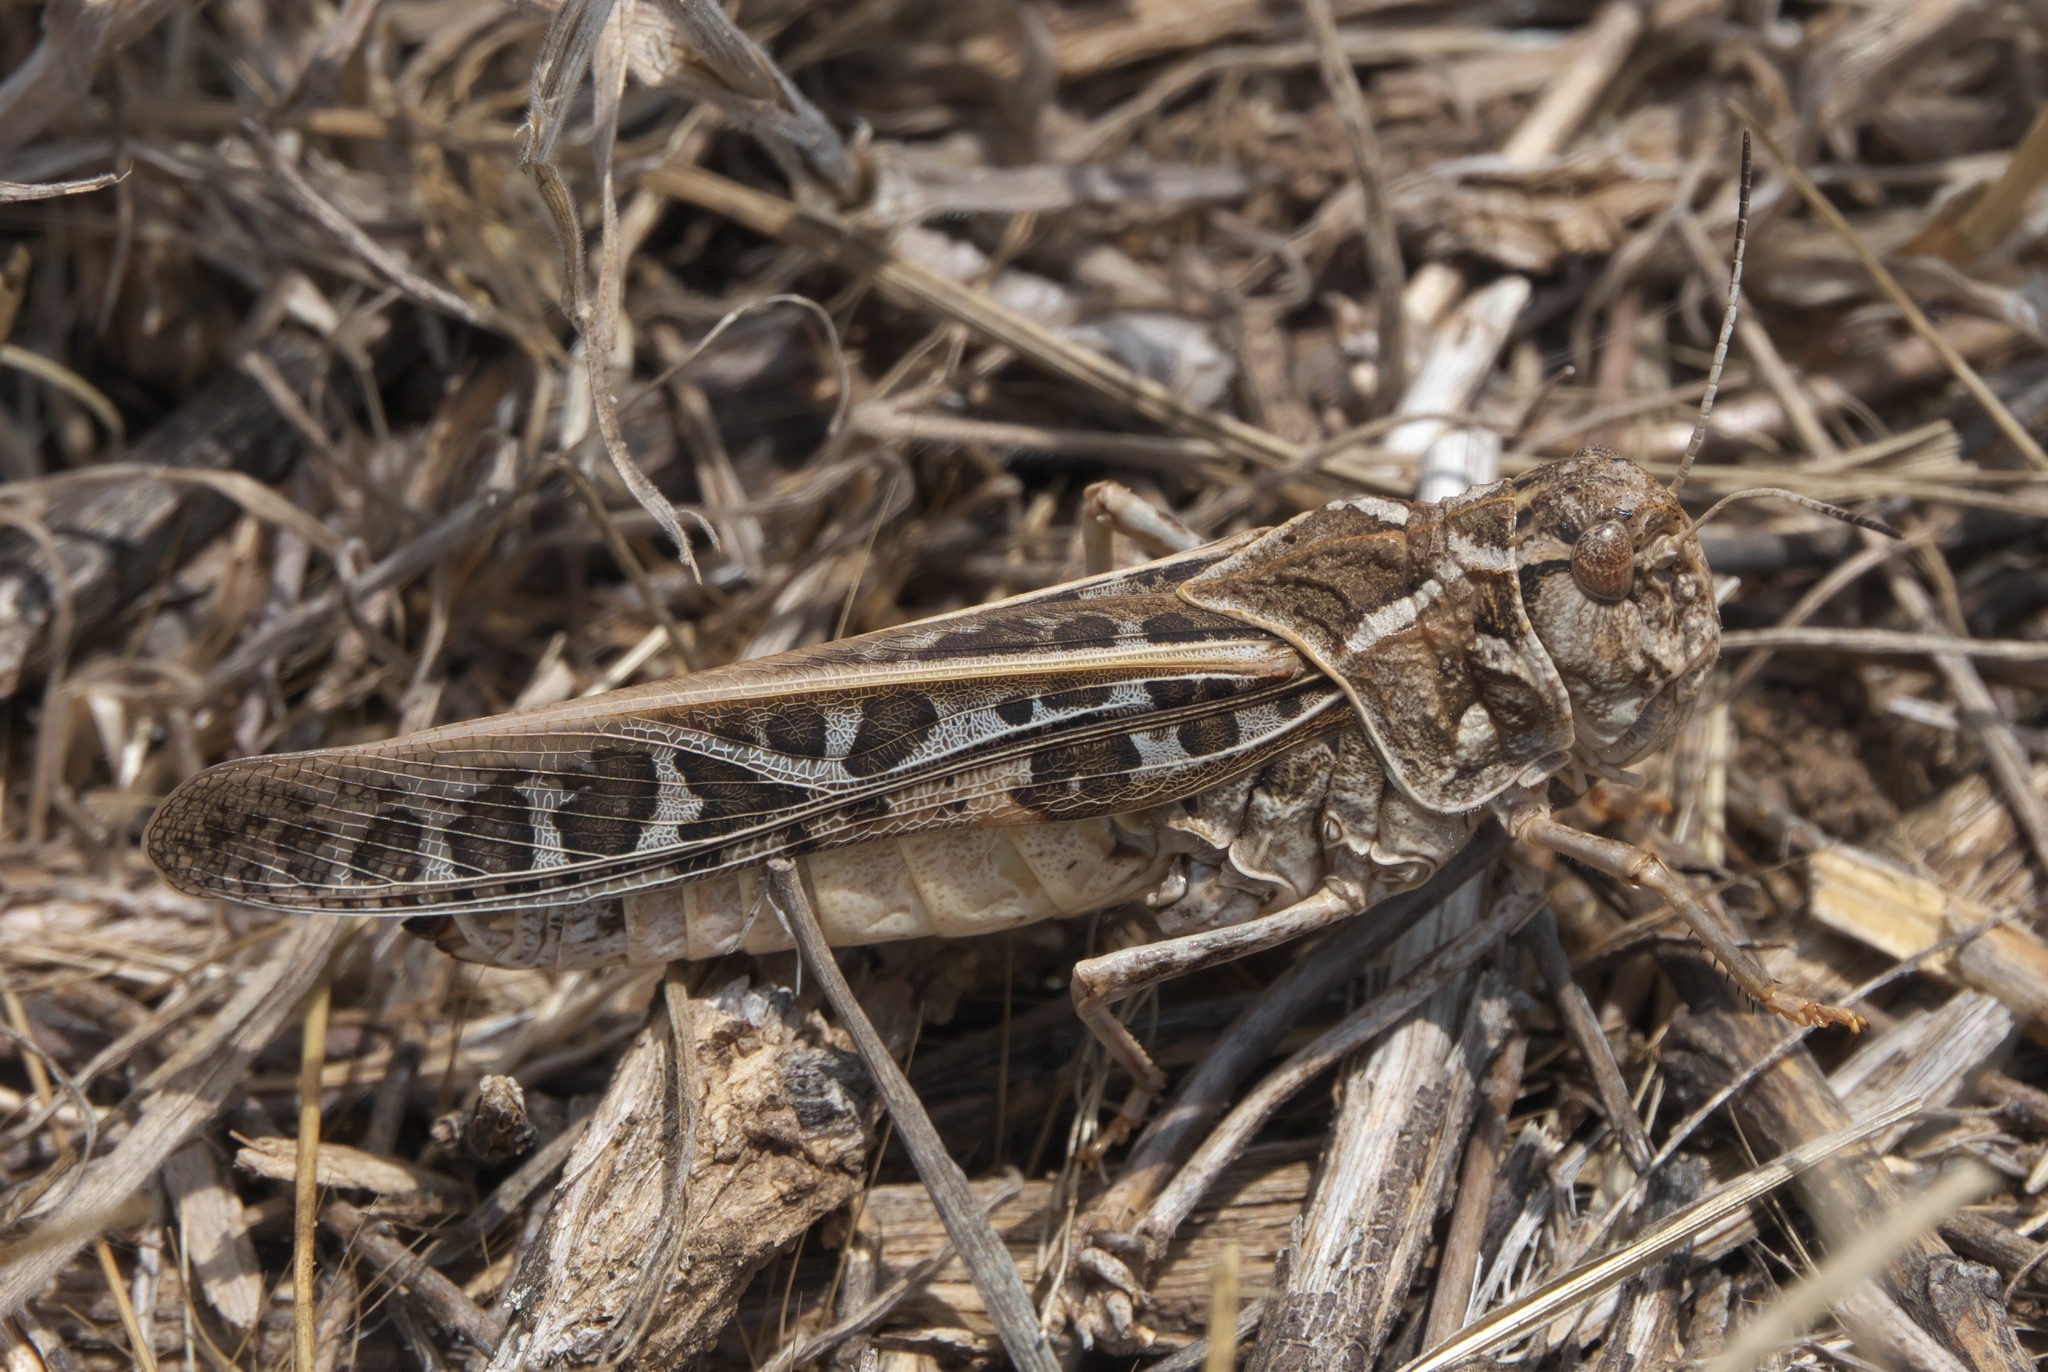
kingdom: Animalia
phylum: Arthropoda
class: Insecta
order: Orthoptera
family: Acrididae
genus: Xanthippus
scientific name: Xanthippus corallipes
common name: Redshanked grasshopper
